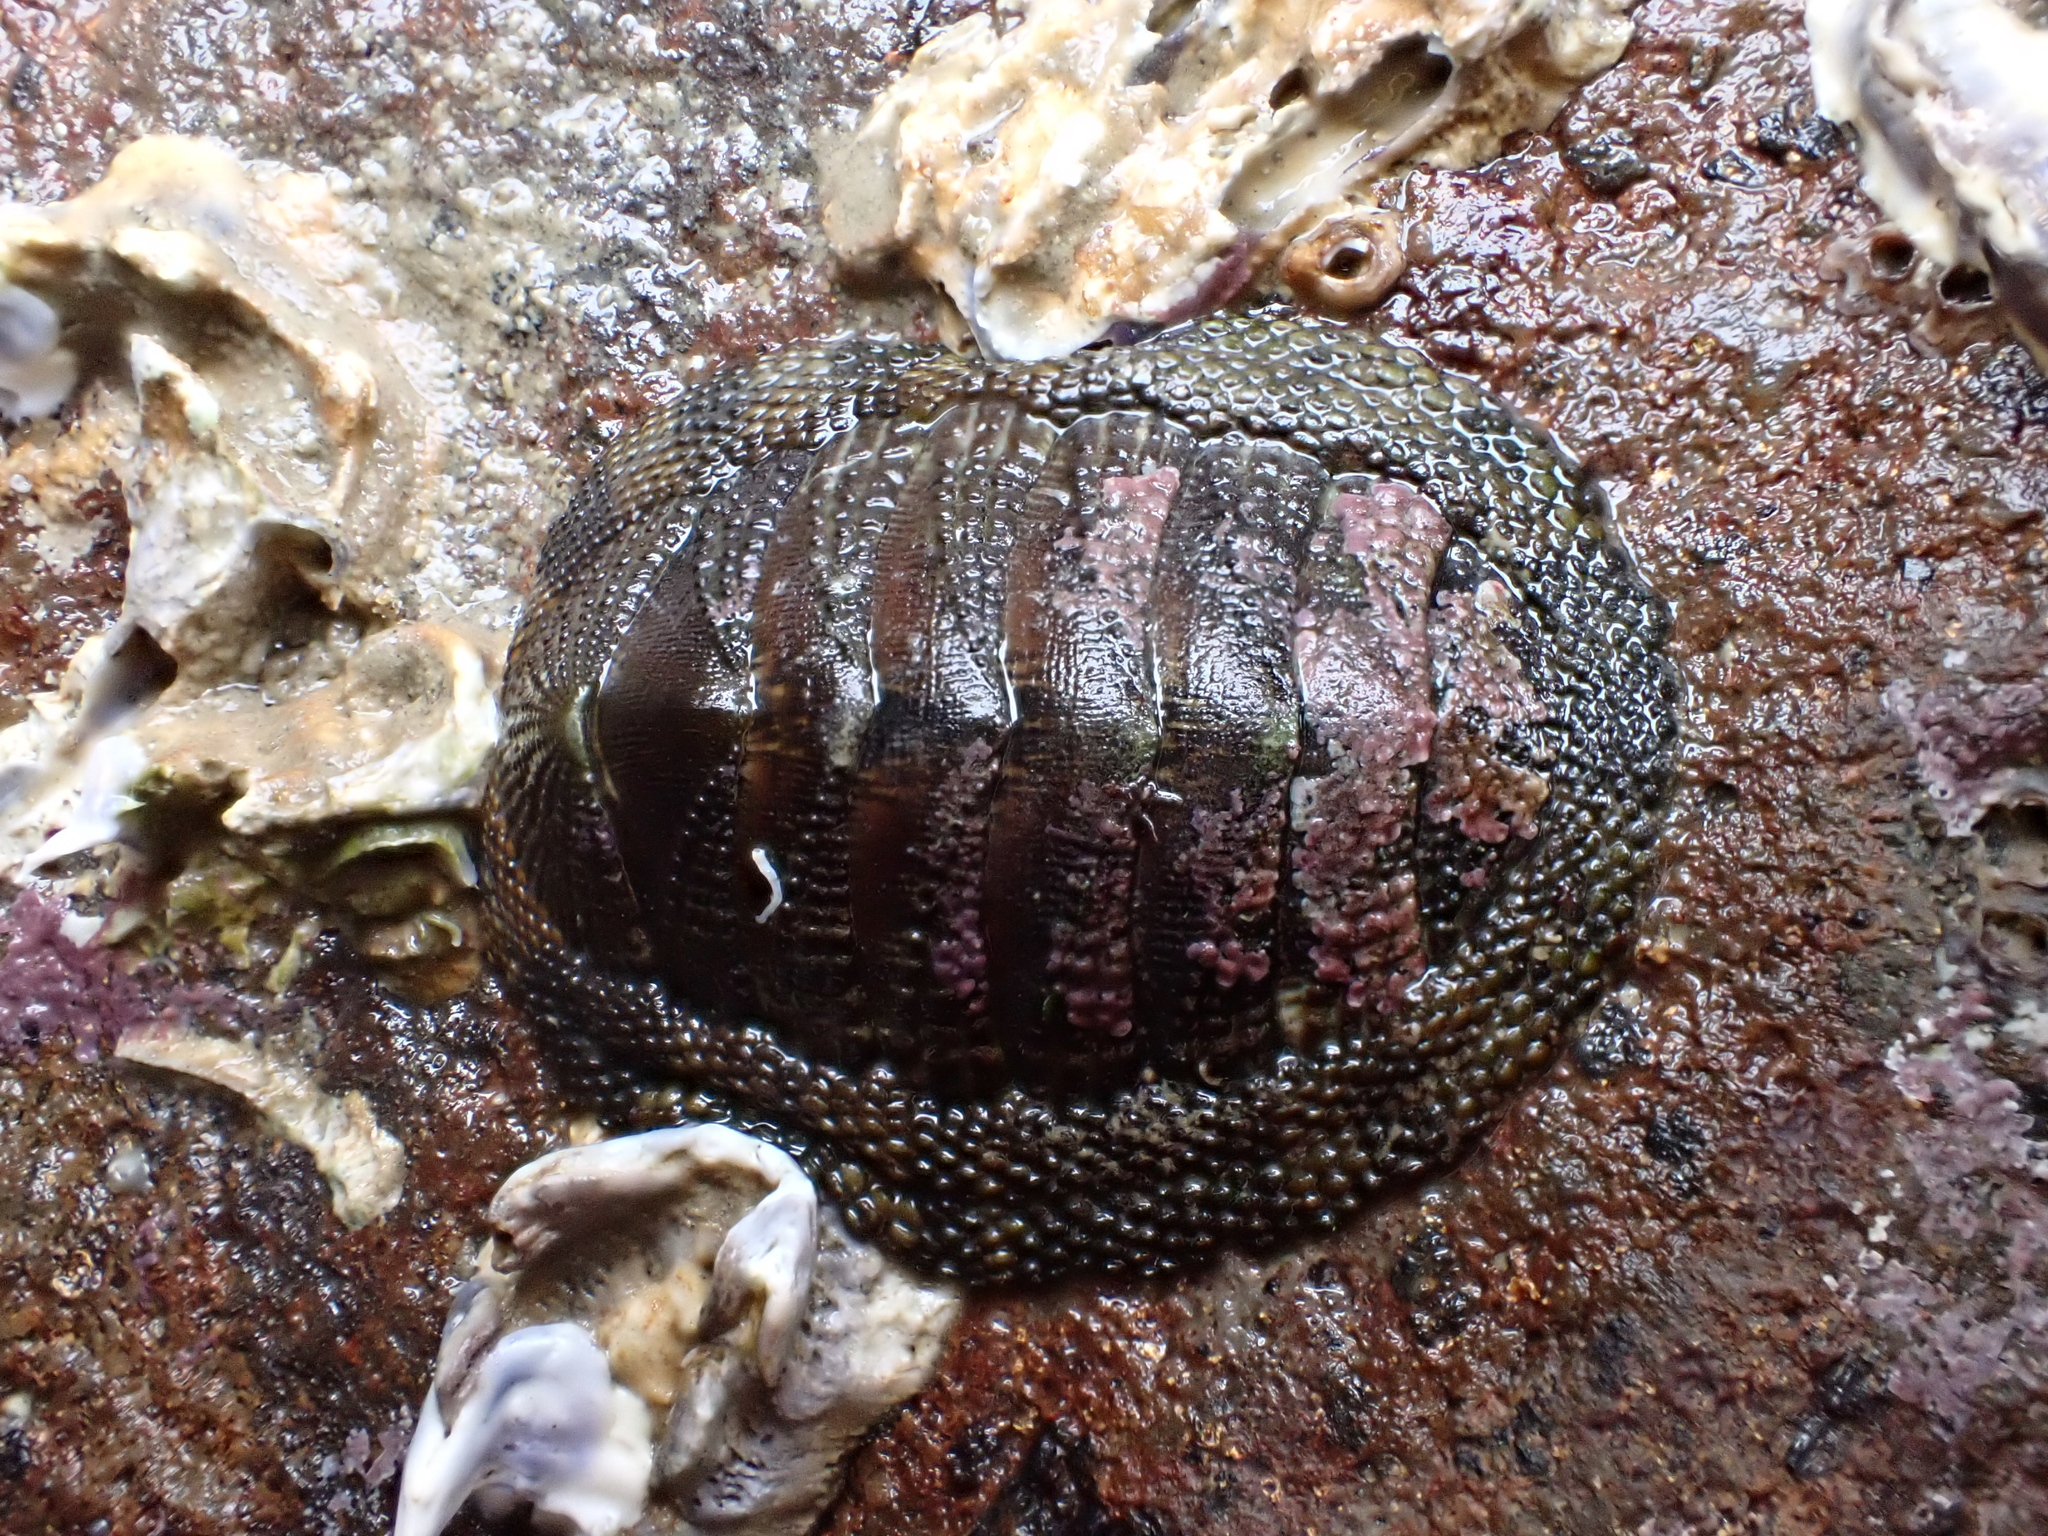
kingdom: Animalia
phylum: Mollusca
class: Polyplacophora
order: Chitonida
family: Chitonidae
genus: Sypharochiton
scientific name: Sypharochiton pelliserpentis
